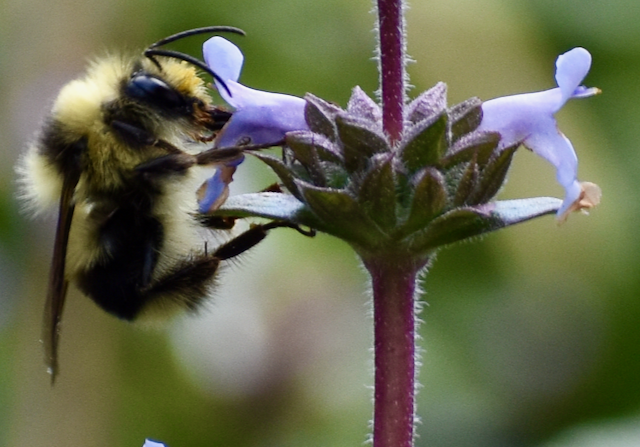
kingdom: Animalia
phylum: Arthropoda
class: Insecta
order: Hymenoptera
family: Apidae
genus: Bombus
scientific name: Bombus melanopygus
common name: Black tail bumble bee
